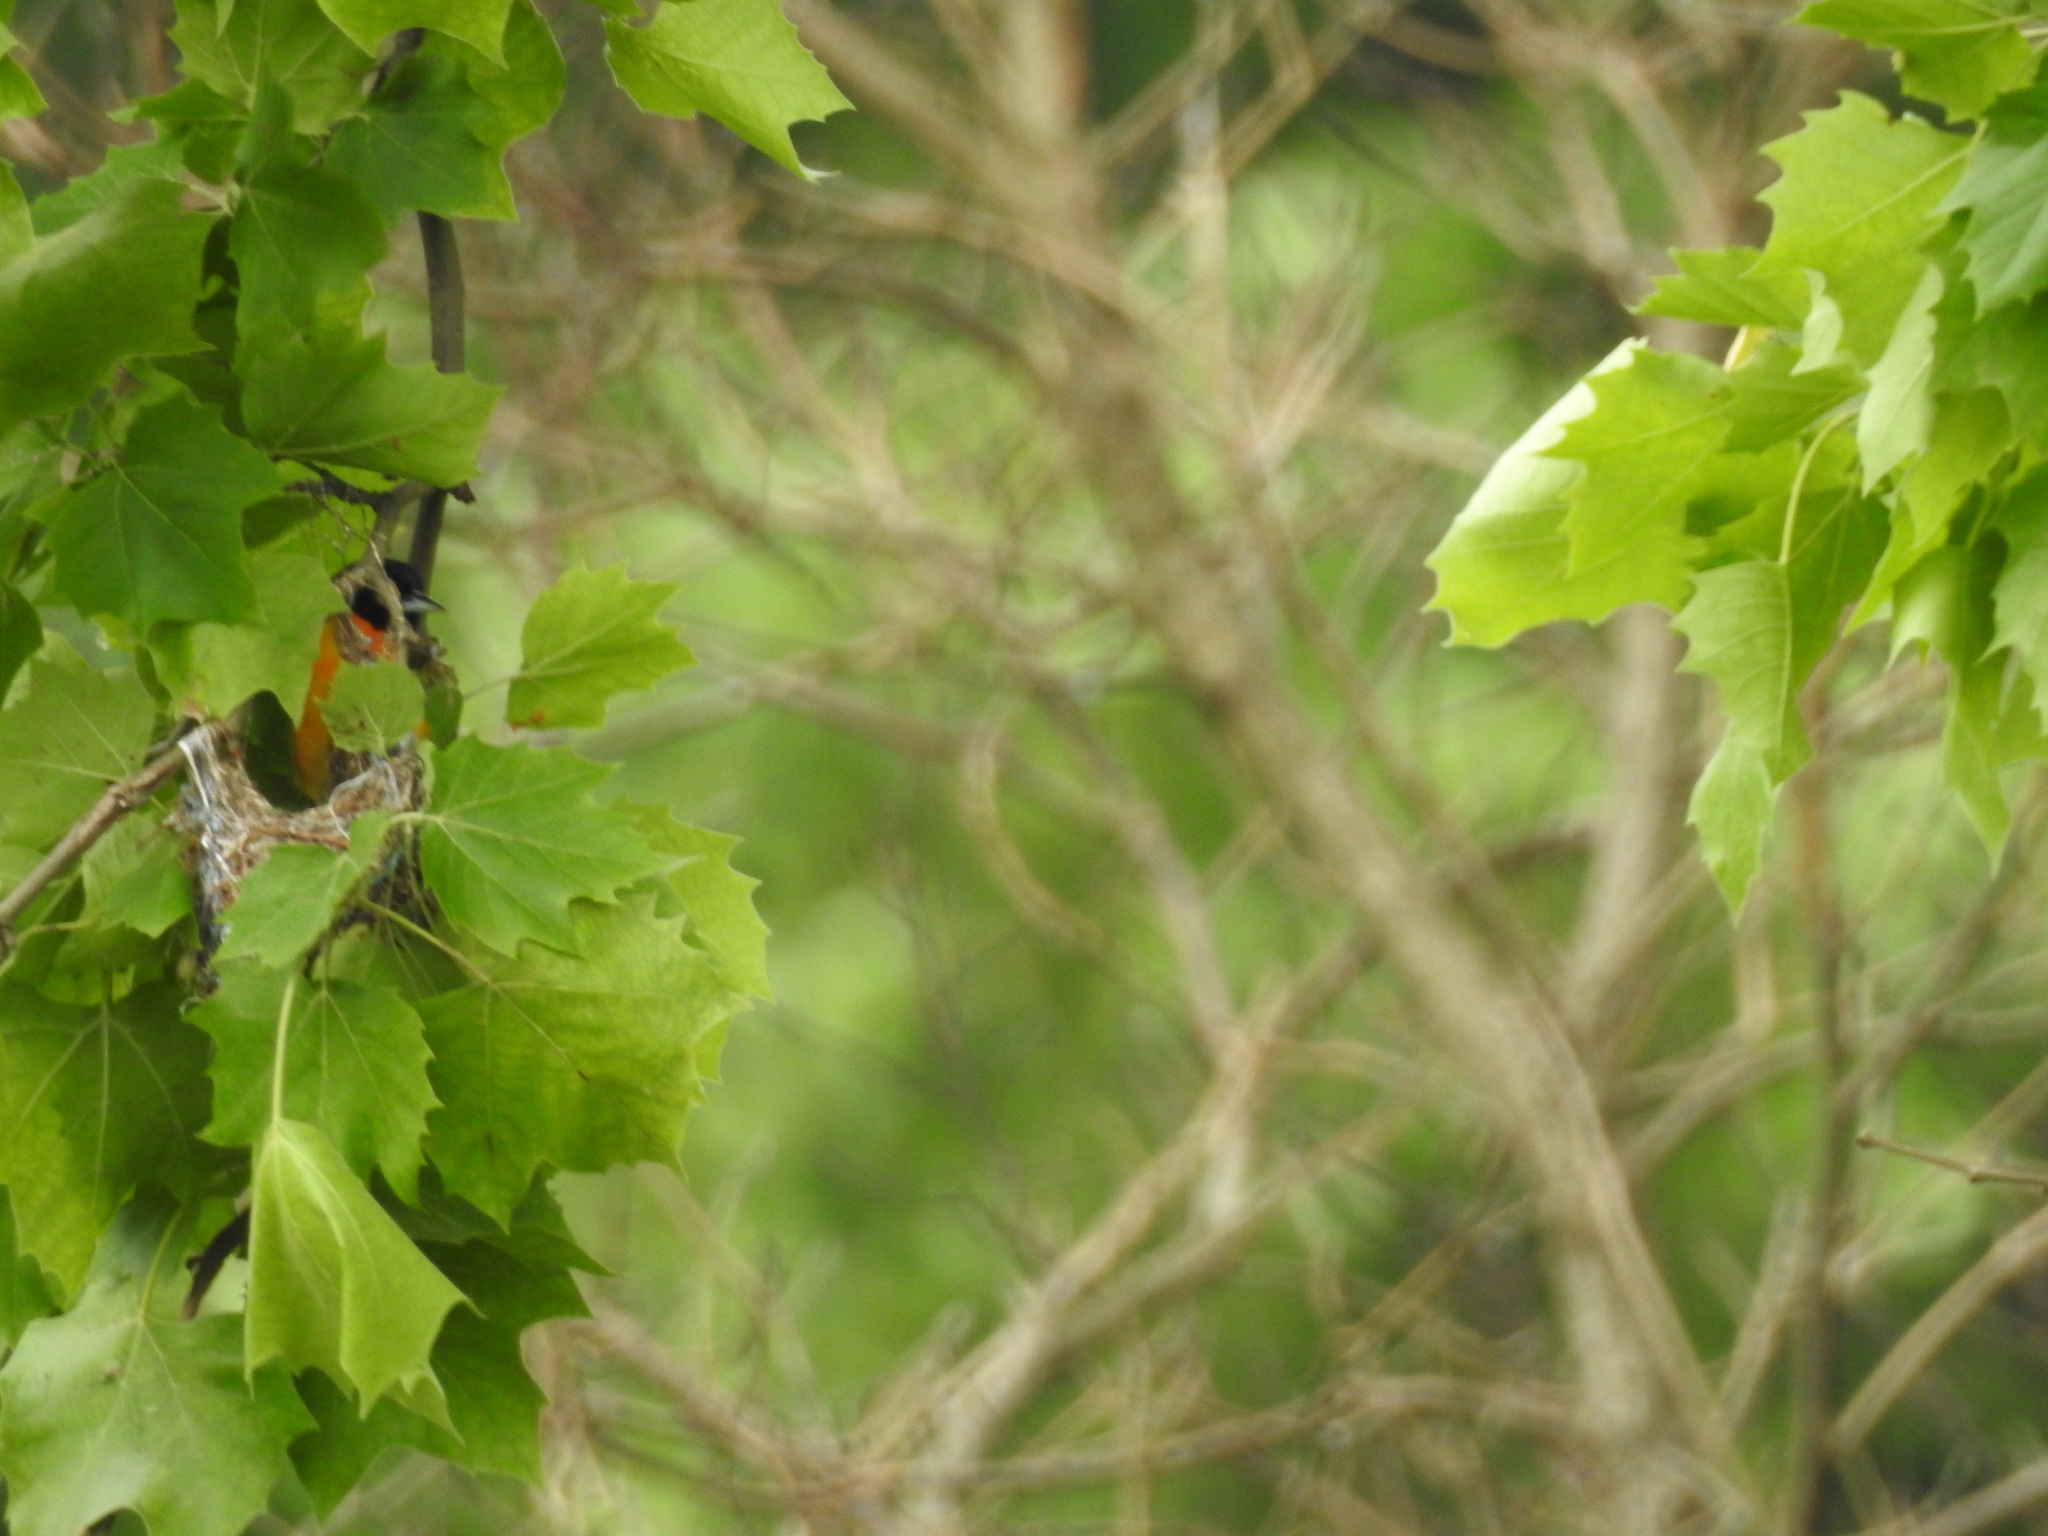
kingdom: Animalia
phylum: Chordata
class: Aves
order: Passeriformes
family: Icteridae
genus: Icterus
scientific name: Icterus galbula
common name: Baltimore oriole
